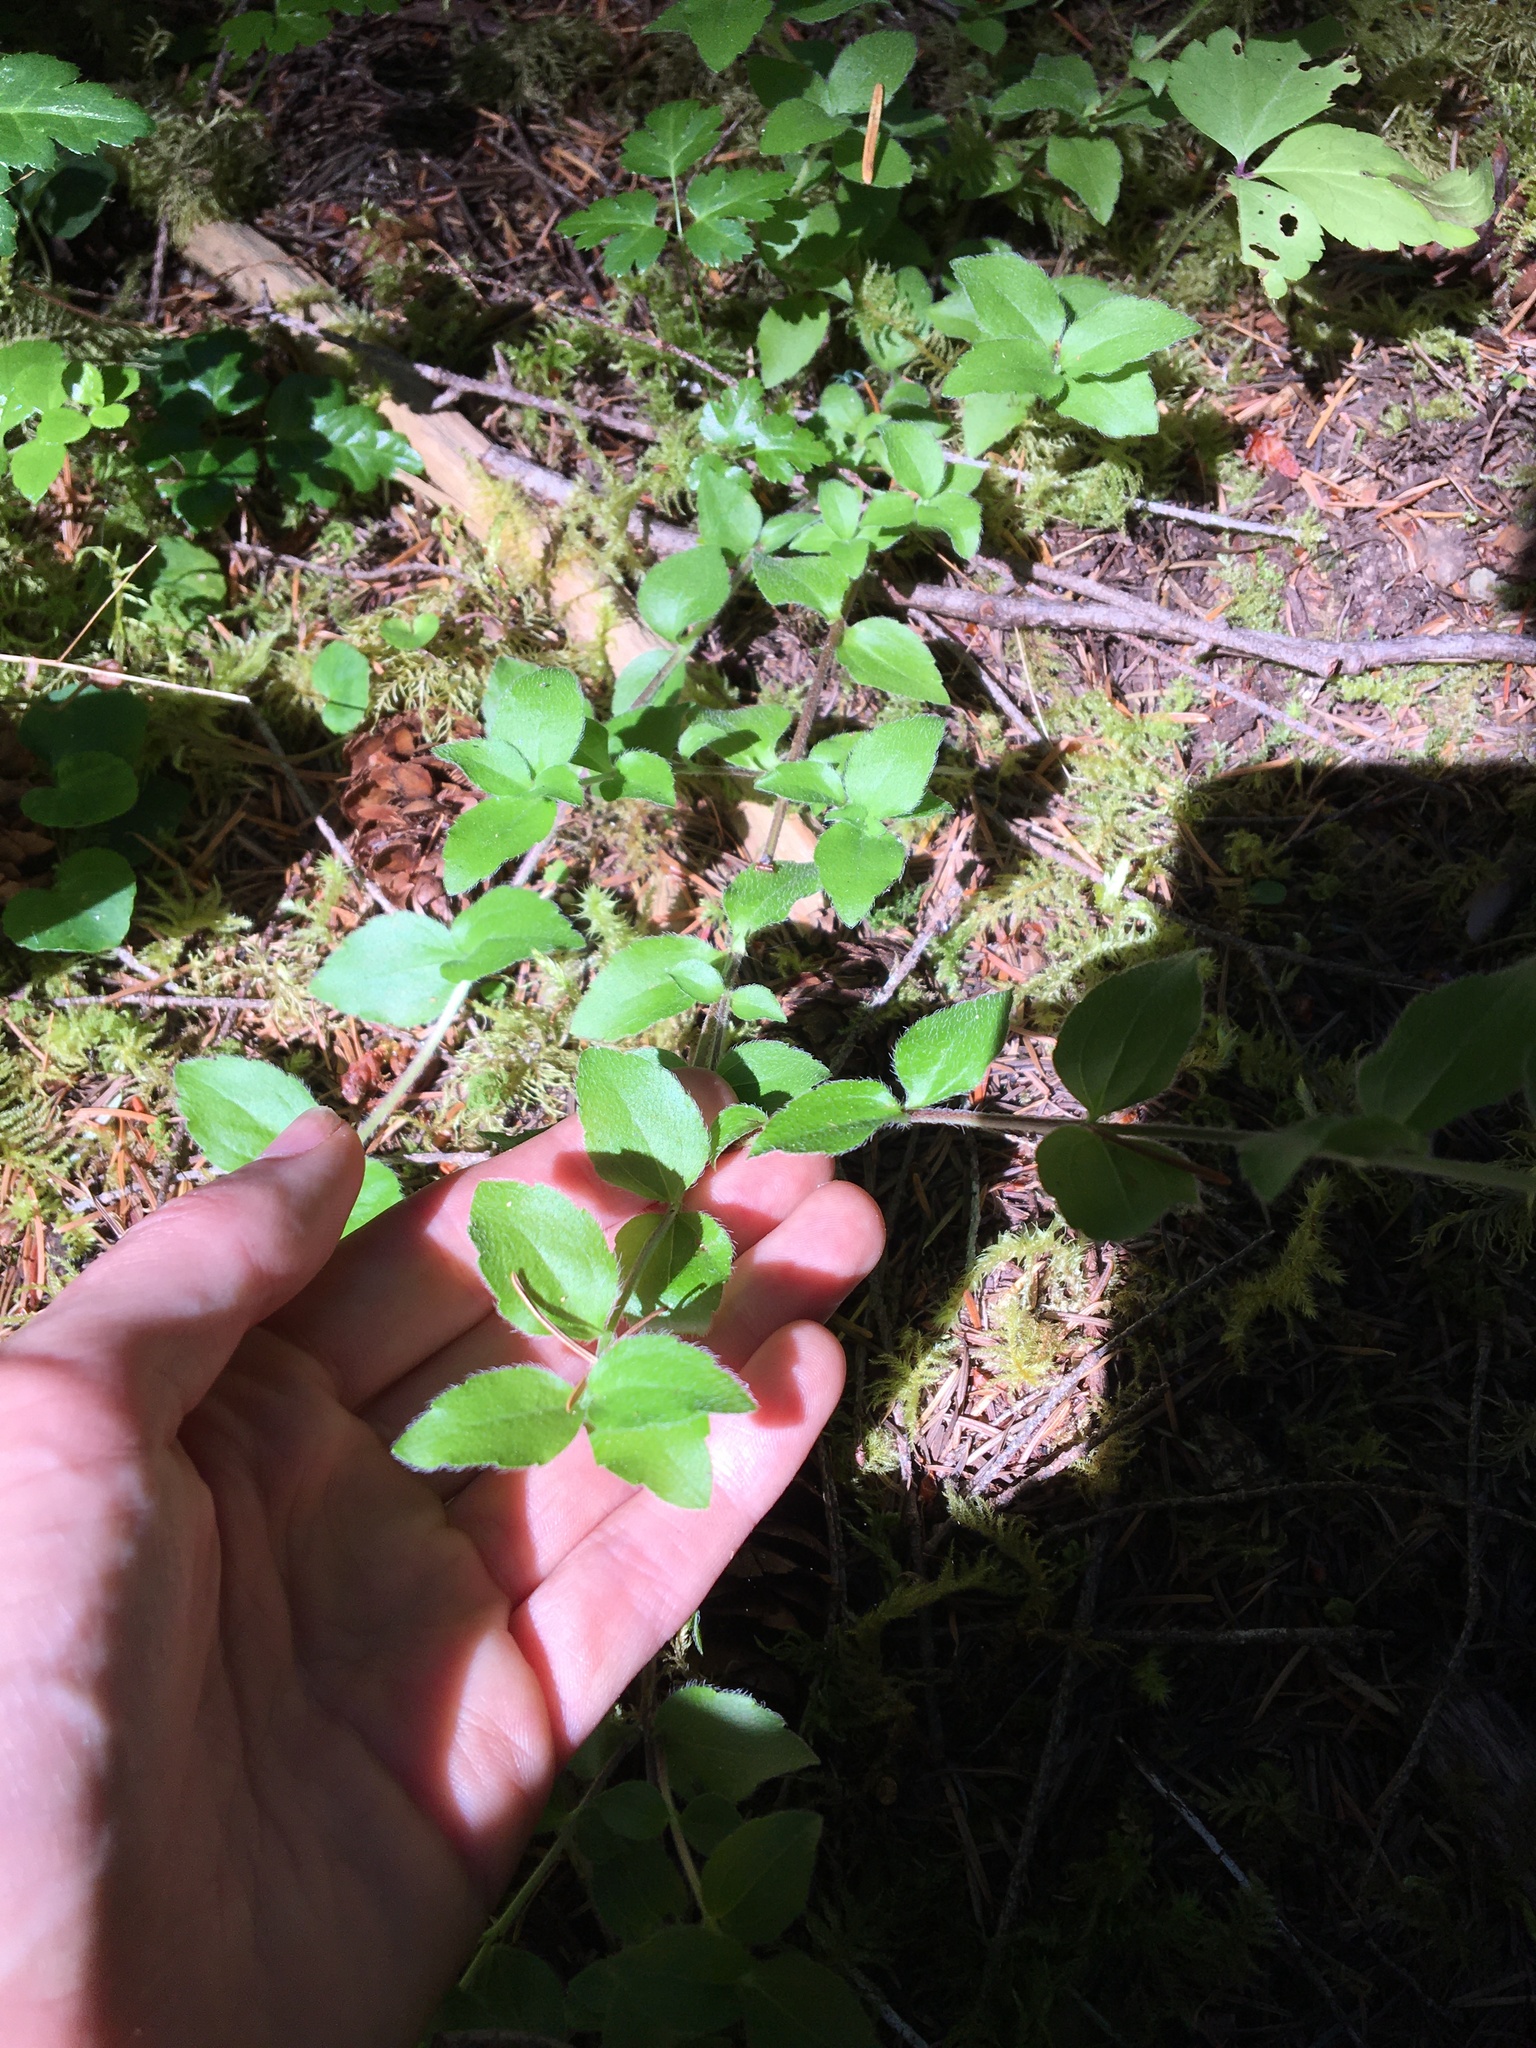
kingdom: Plantae
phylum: Tracheophyta
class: Magnoliopsida
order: Cornales
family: Hydrangeaceae
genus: Whipplea
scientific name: Whipplea modesta
